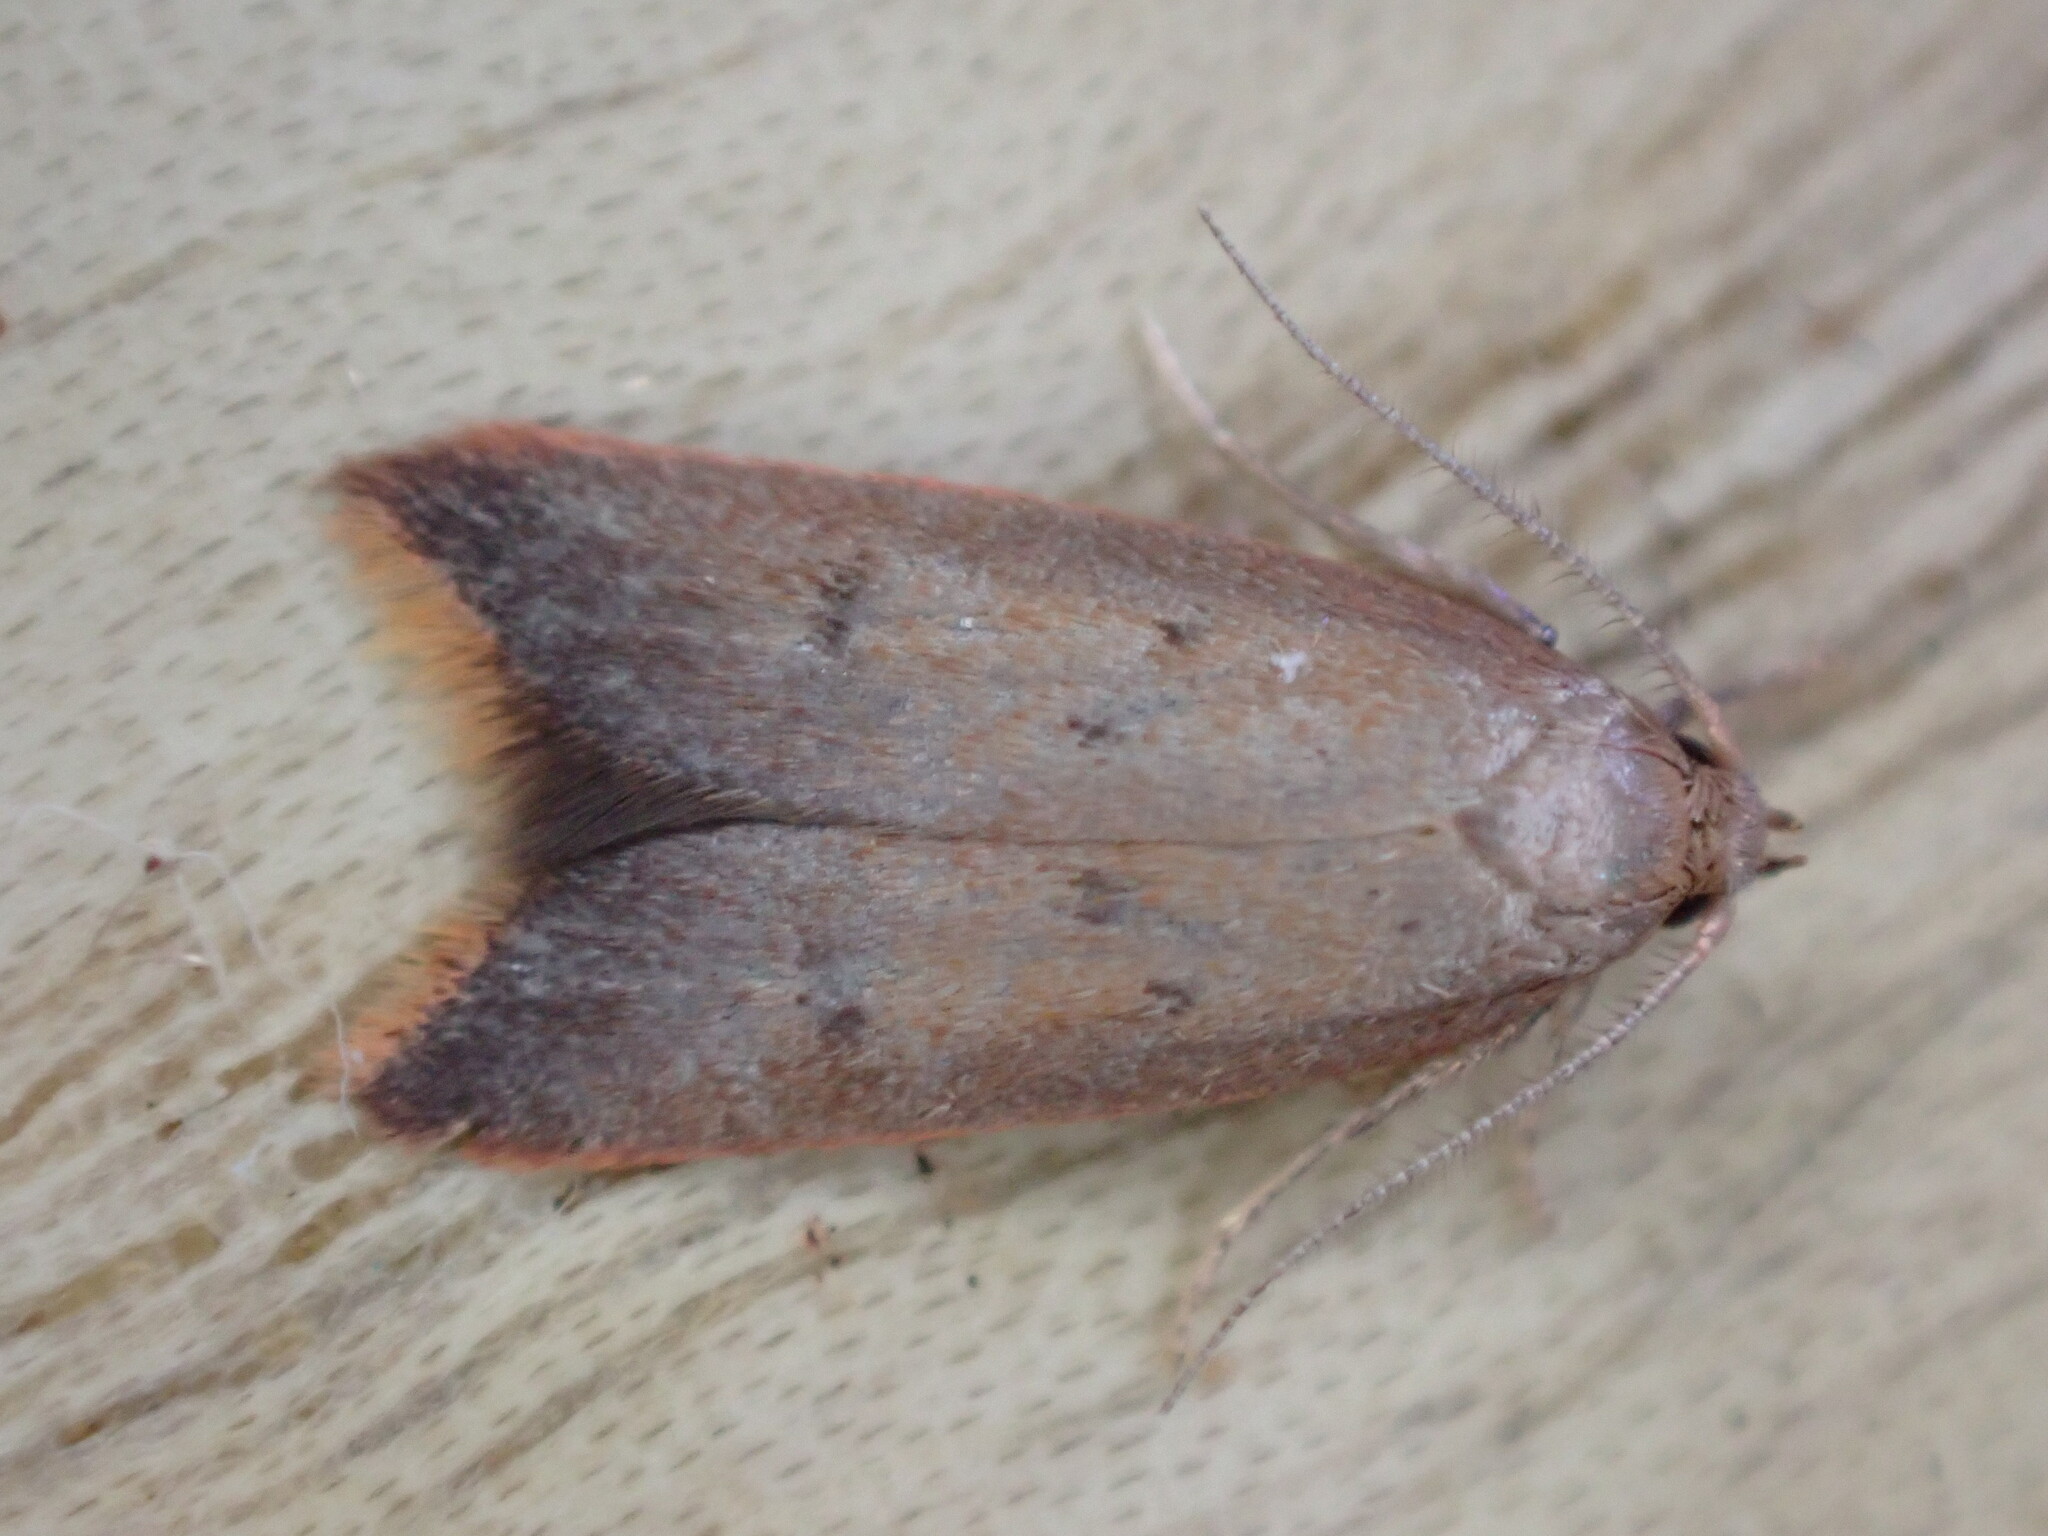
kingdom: Animalia
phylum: Arthropoda
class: Insecta
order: Lepidoptera
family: Oecophoridae
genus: Tachystola
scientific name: Tachystola acroxantha
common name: Ruddy streak
